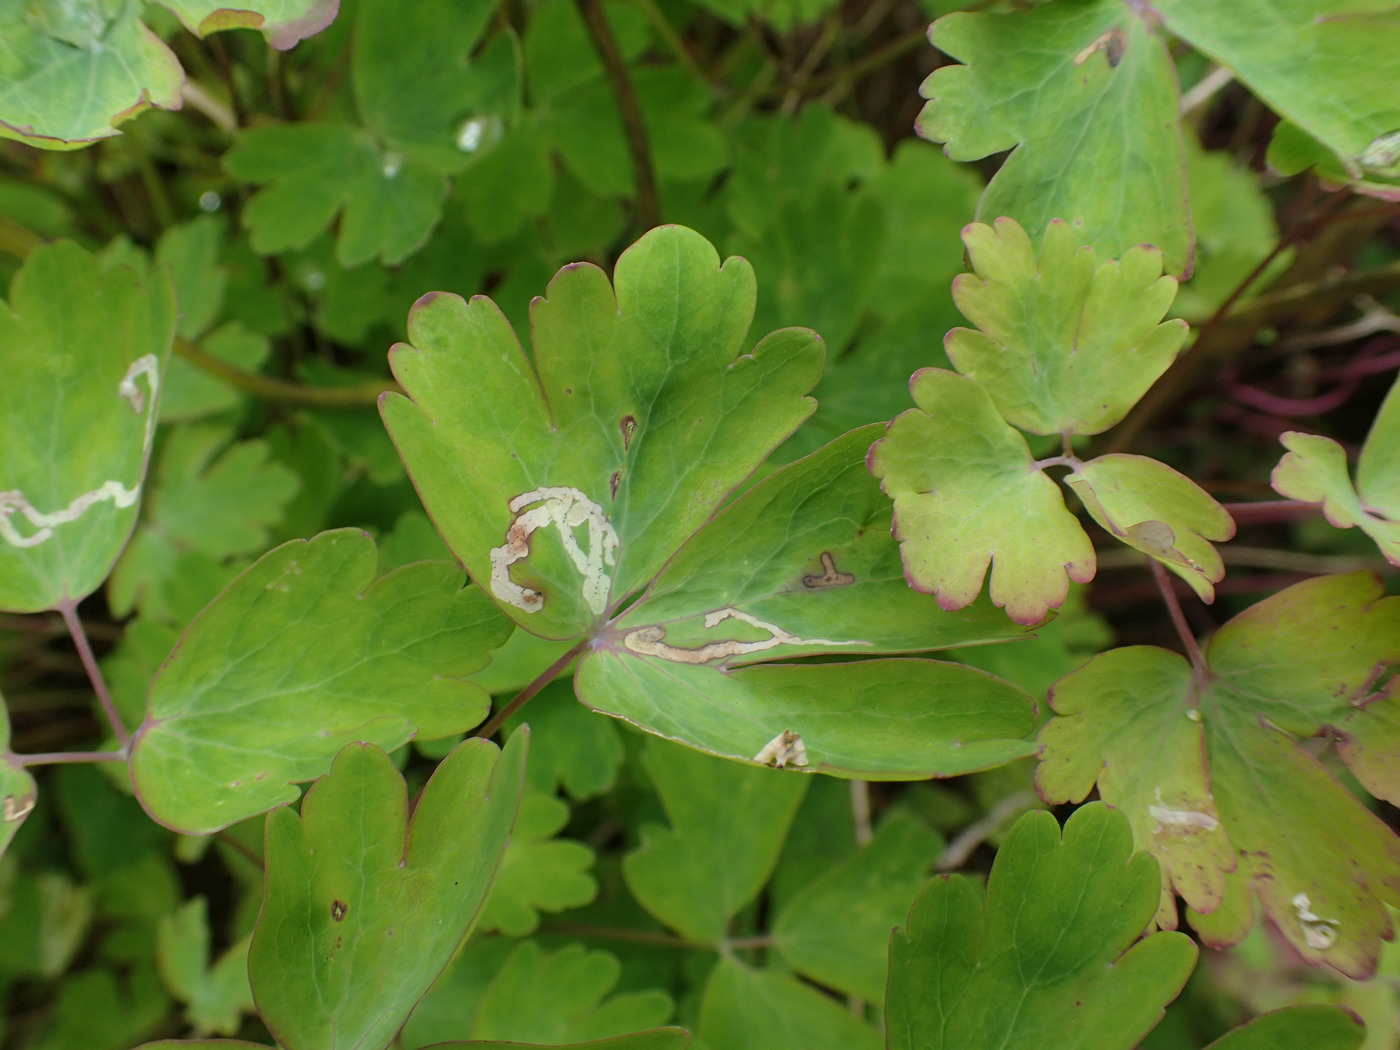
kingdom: Animalia
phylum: Arthropoda
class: Insecta
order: Diptera
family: Agromyzidae
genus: Phytomyza
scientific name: Phytomyza
